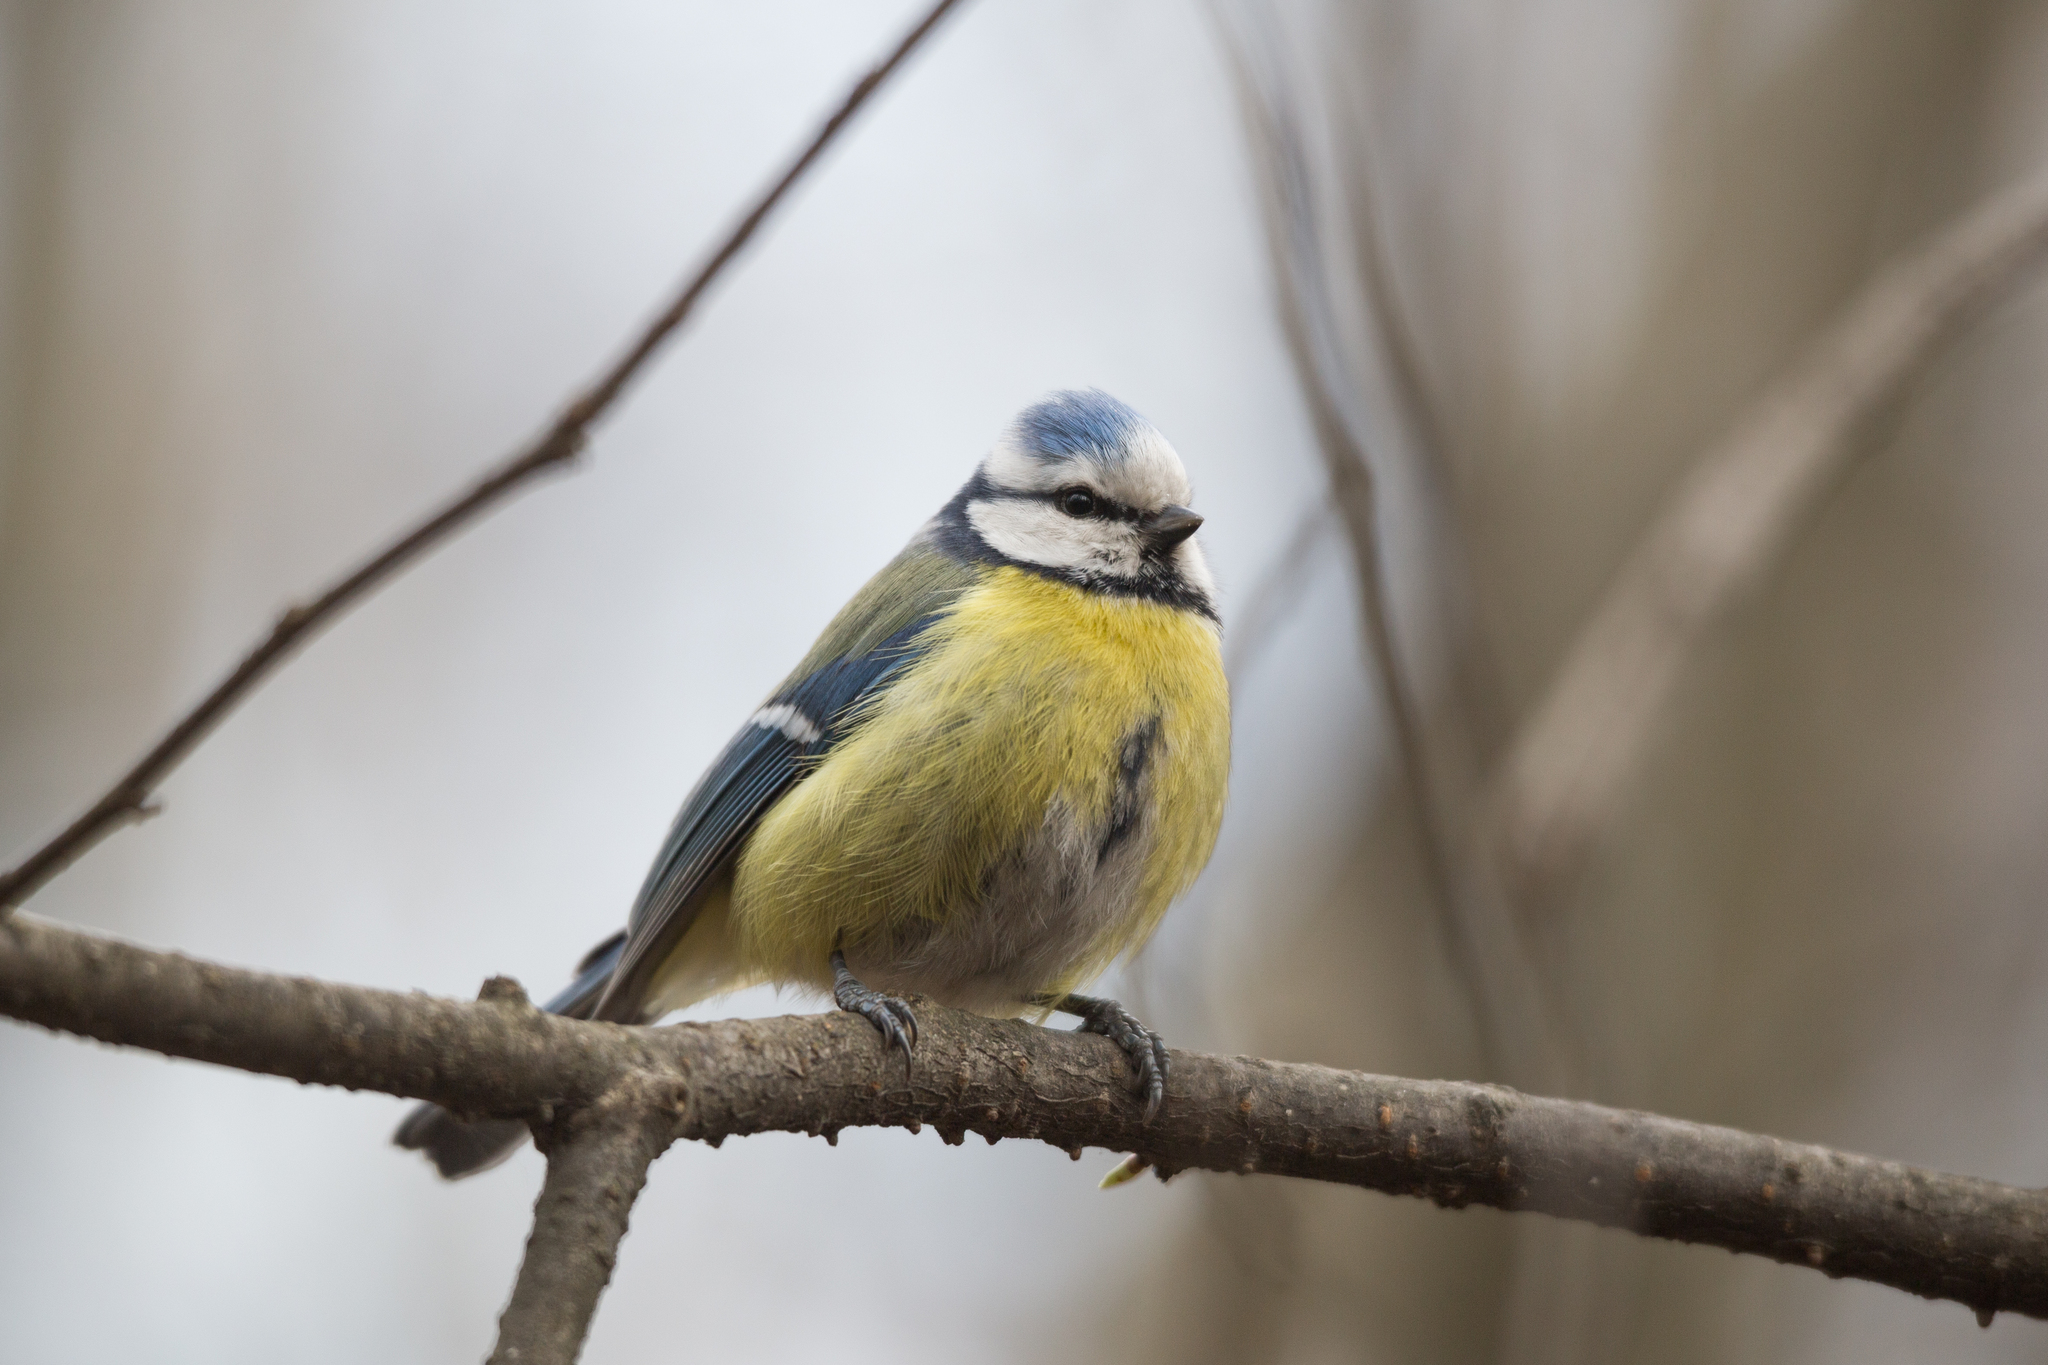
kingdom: Animalia
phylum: Chordata
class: Aves
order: Passeriformes
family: Paridae
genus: Cyanistes
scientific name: Cyanistes caeruleus
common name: Eurasian blue tit
